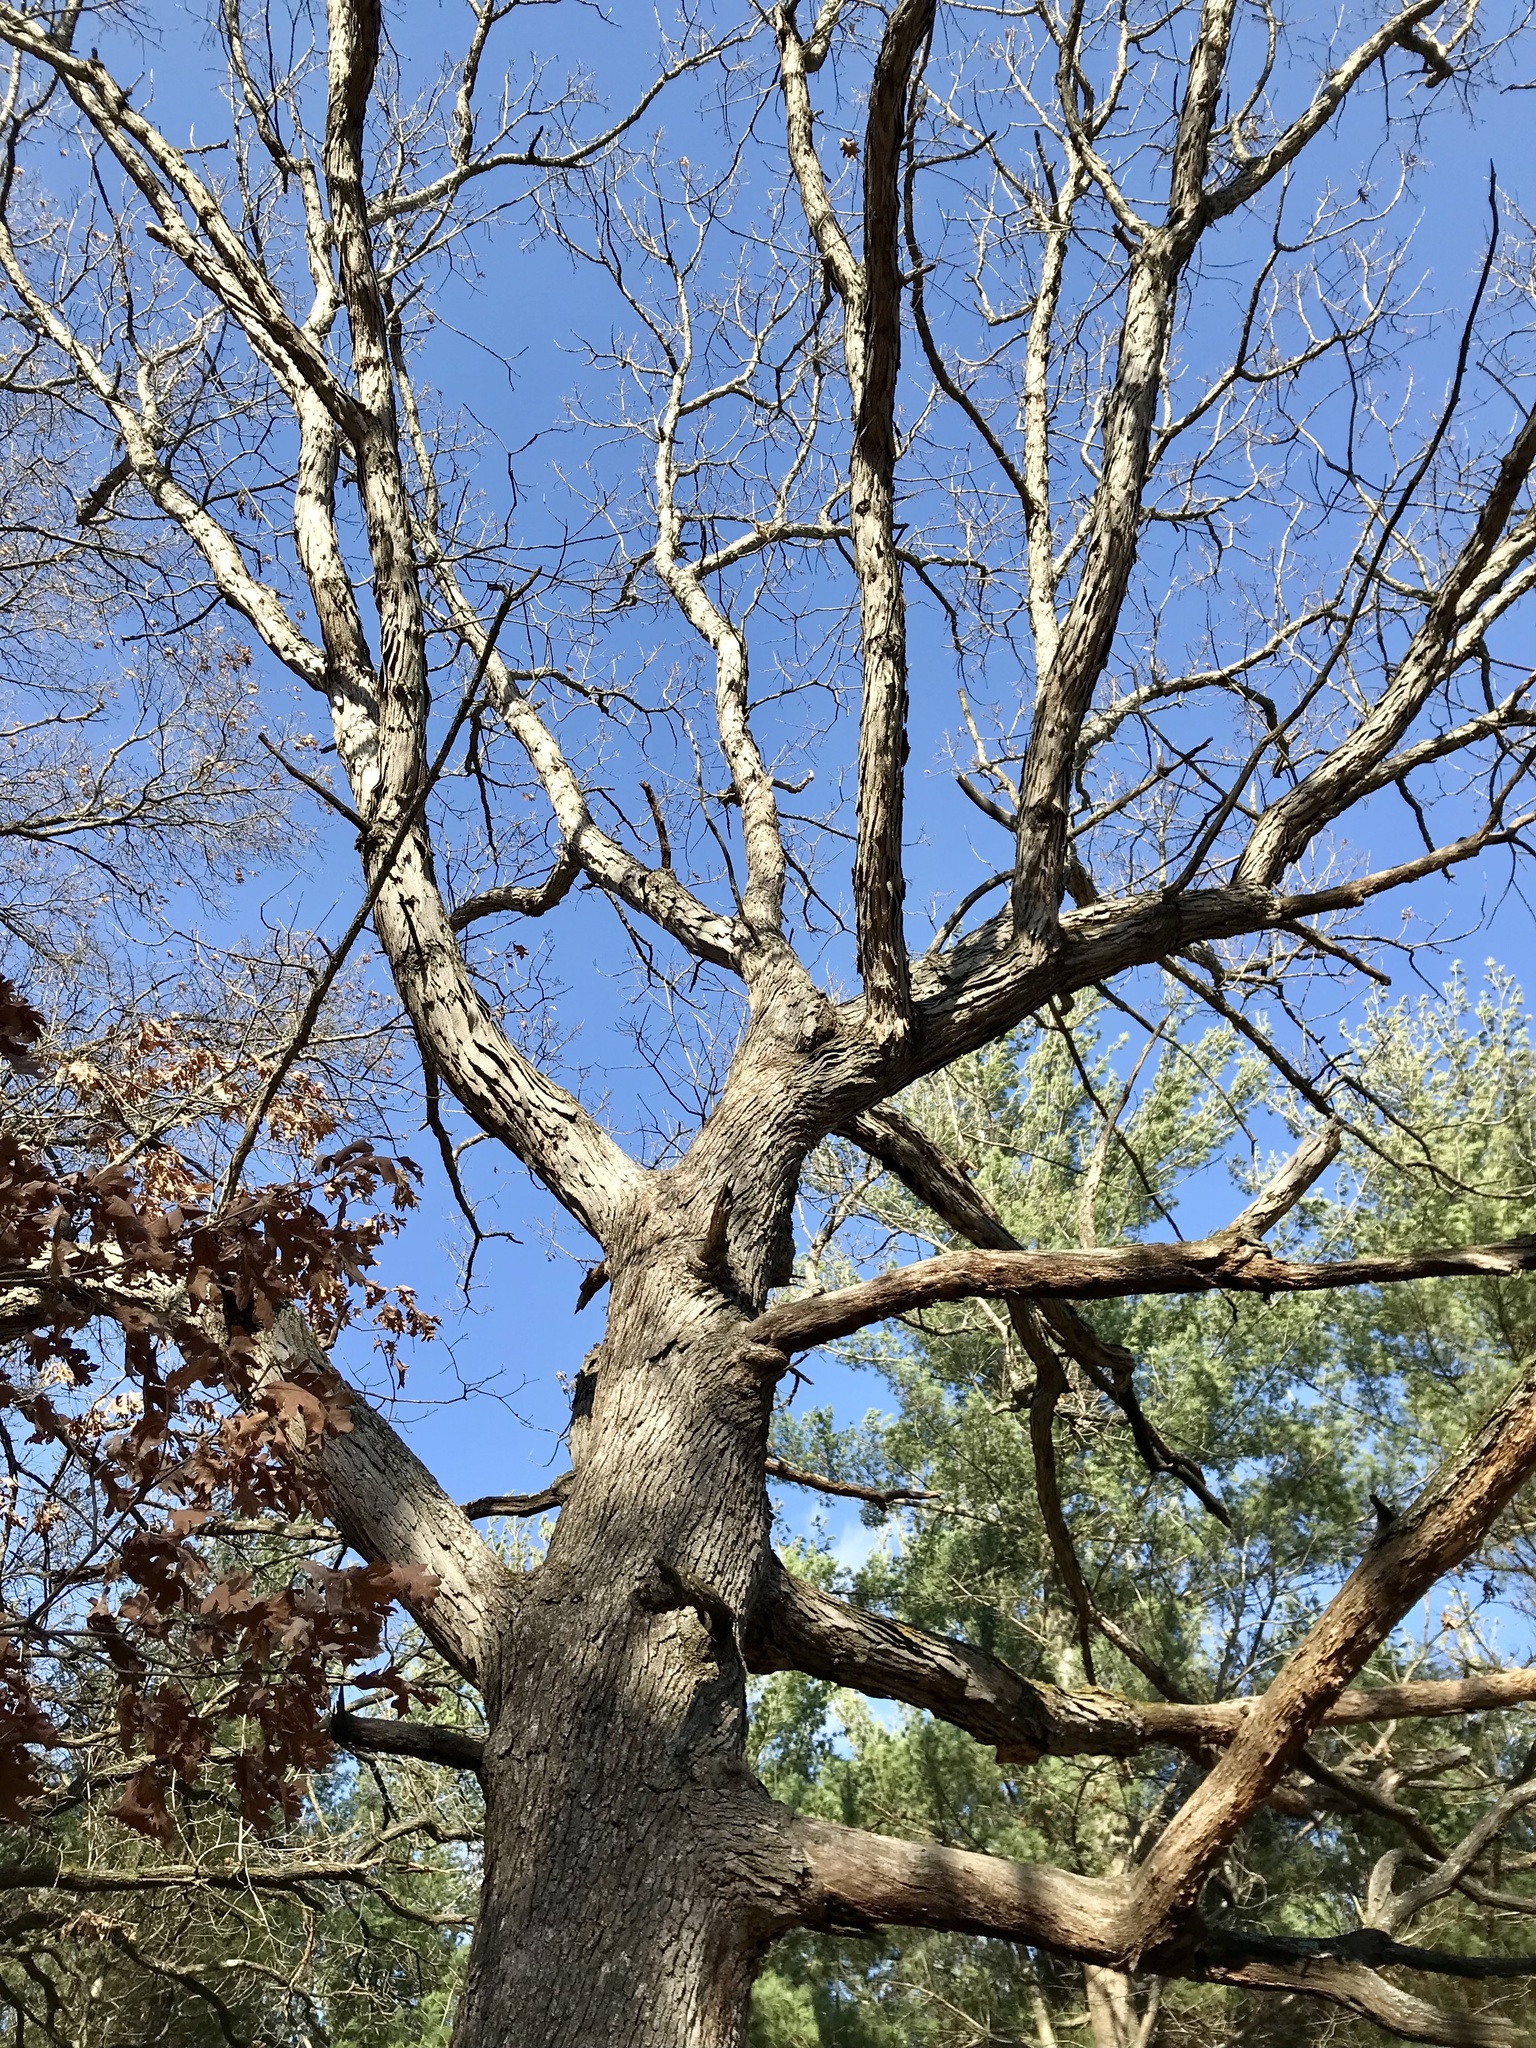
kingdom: Plantae
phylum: Tracheophyta
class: Magnoliopsida
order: Fagales
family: Fagaceae
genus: Quercus
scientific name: Quercus alba
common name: White oak
